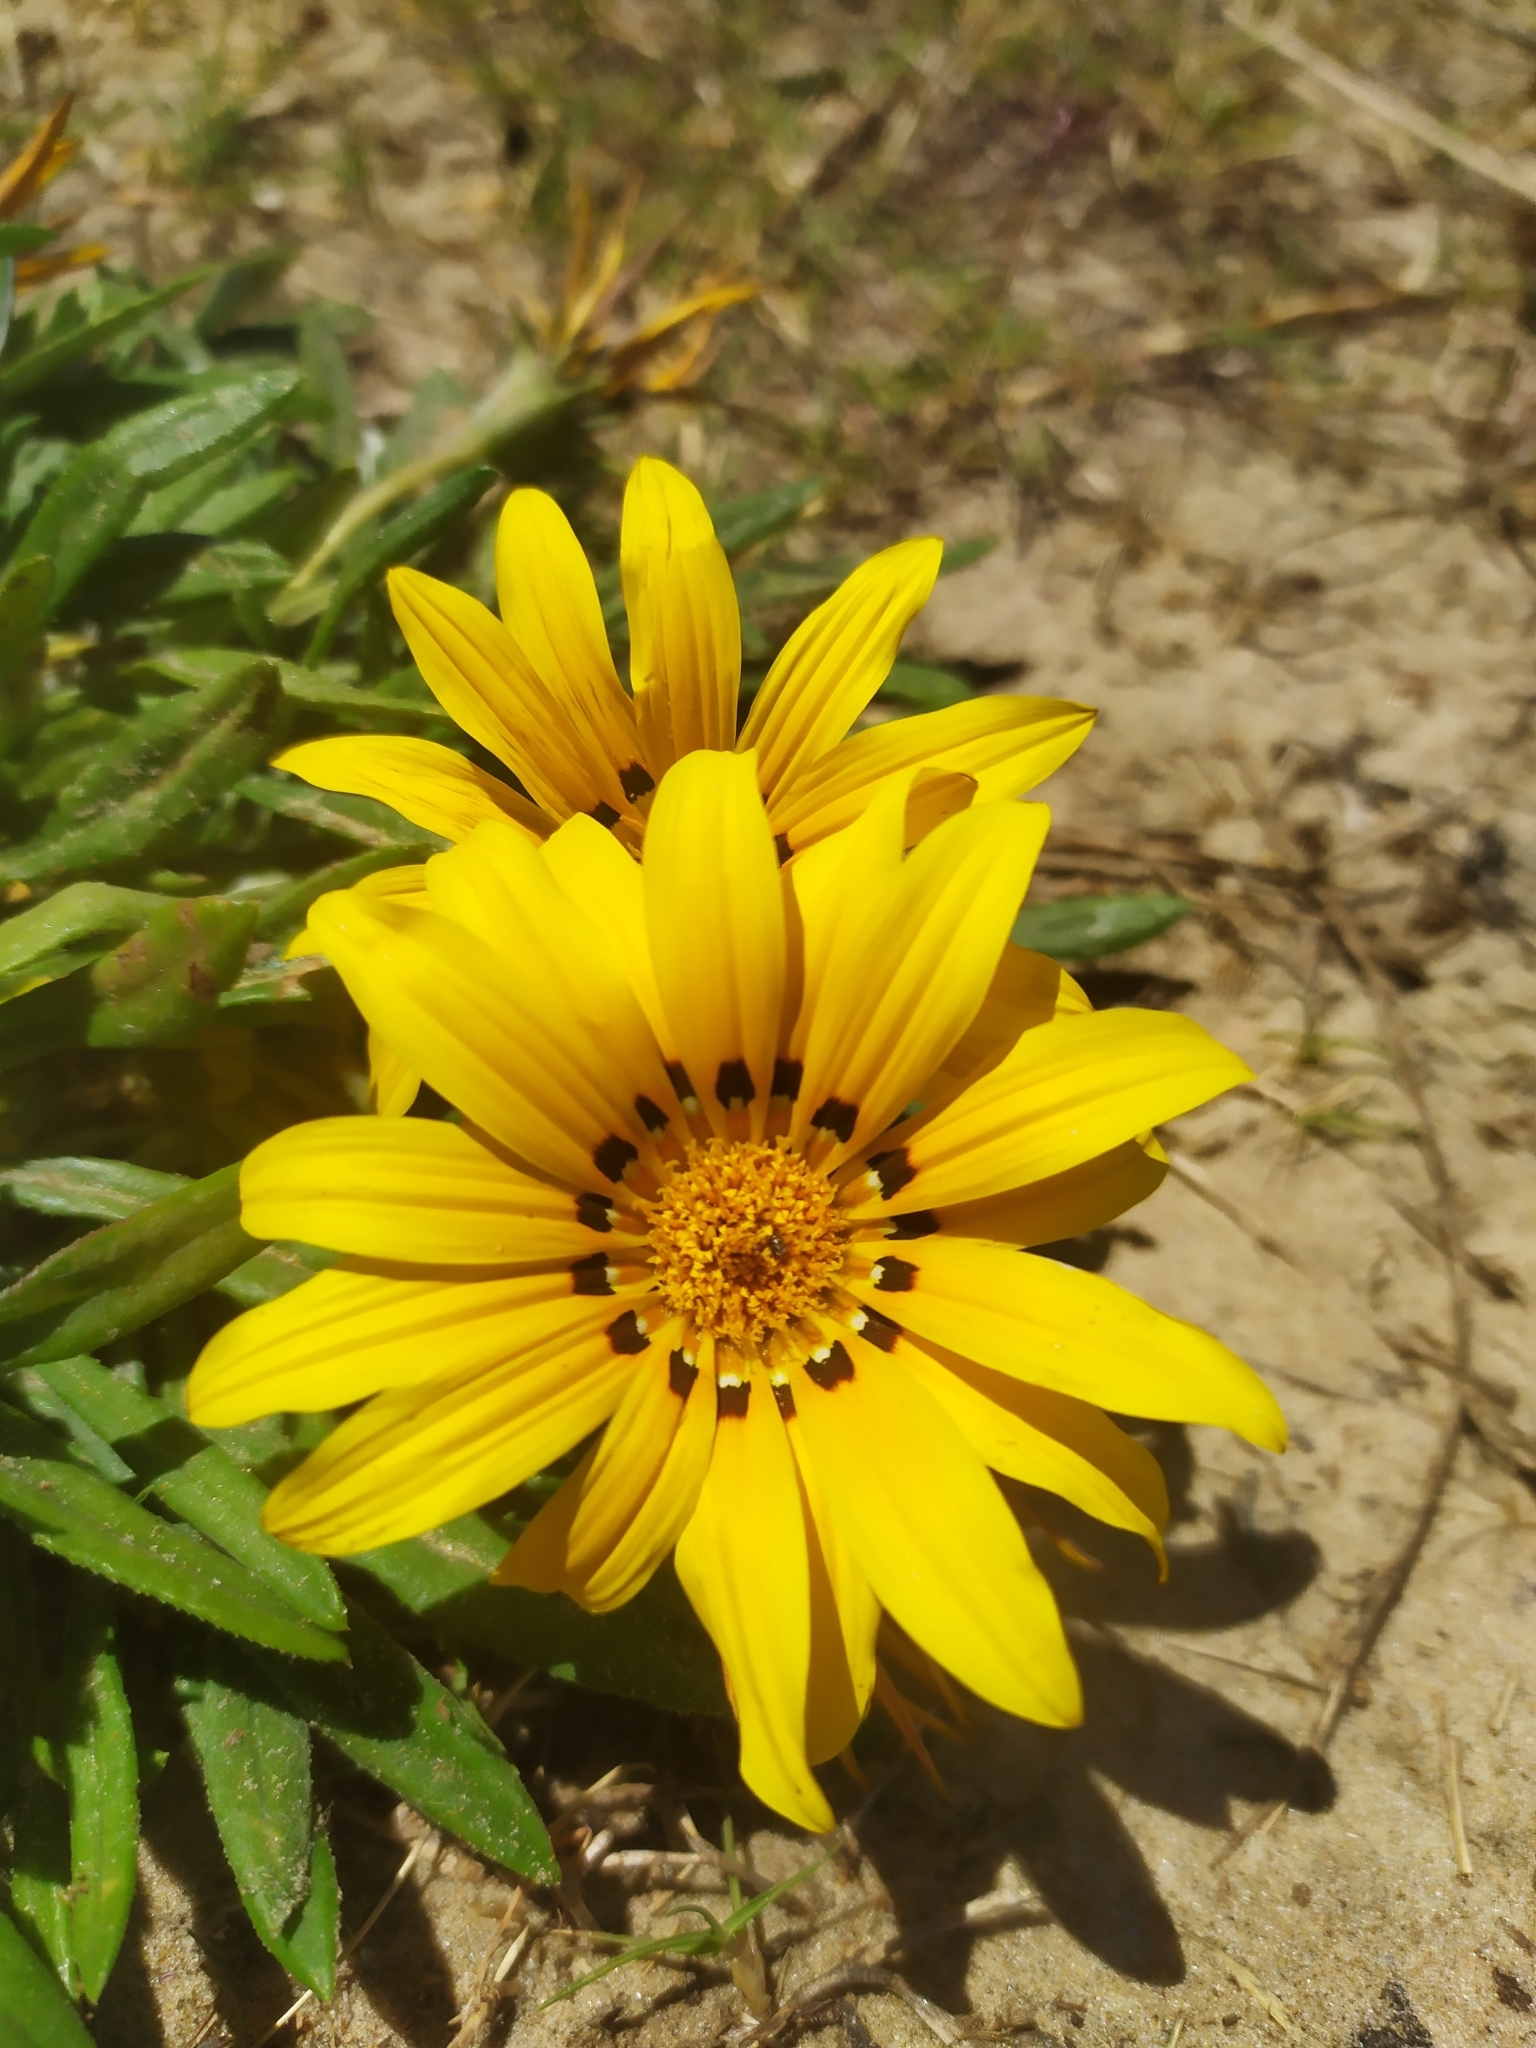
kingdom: Plantae
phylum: Tracheophyta
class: Magnoliopsida
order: Asterales
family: Asteraceae
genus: Gazania
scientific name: Gazania rigens
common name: Treasureflower
